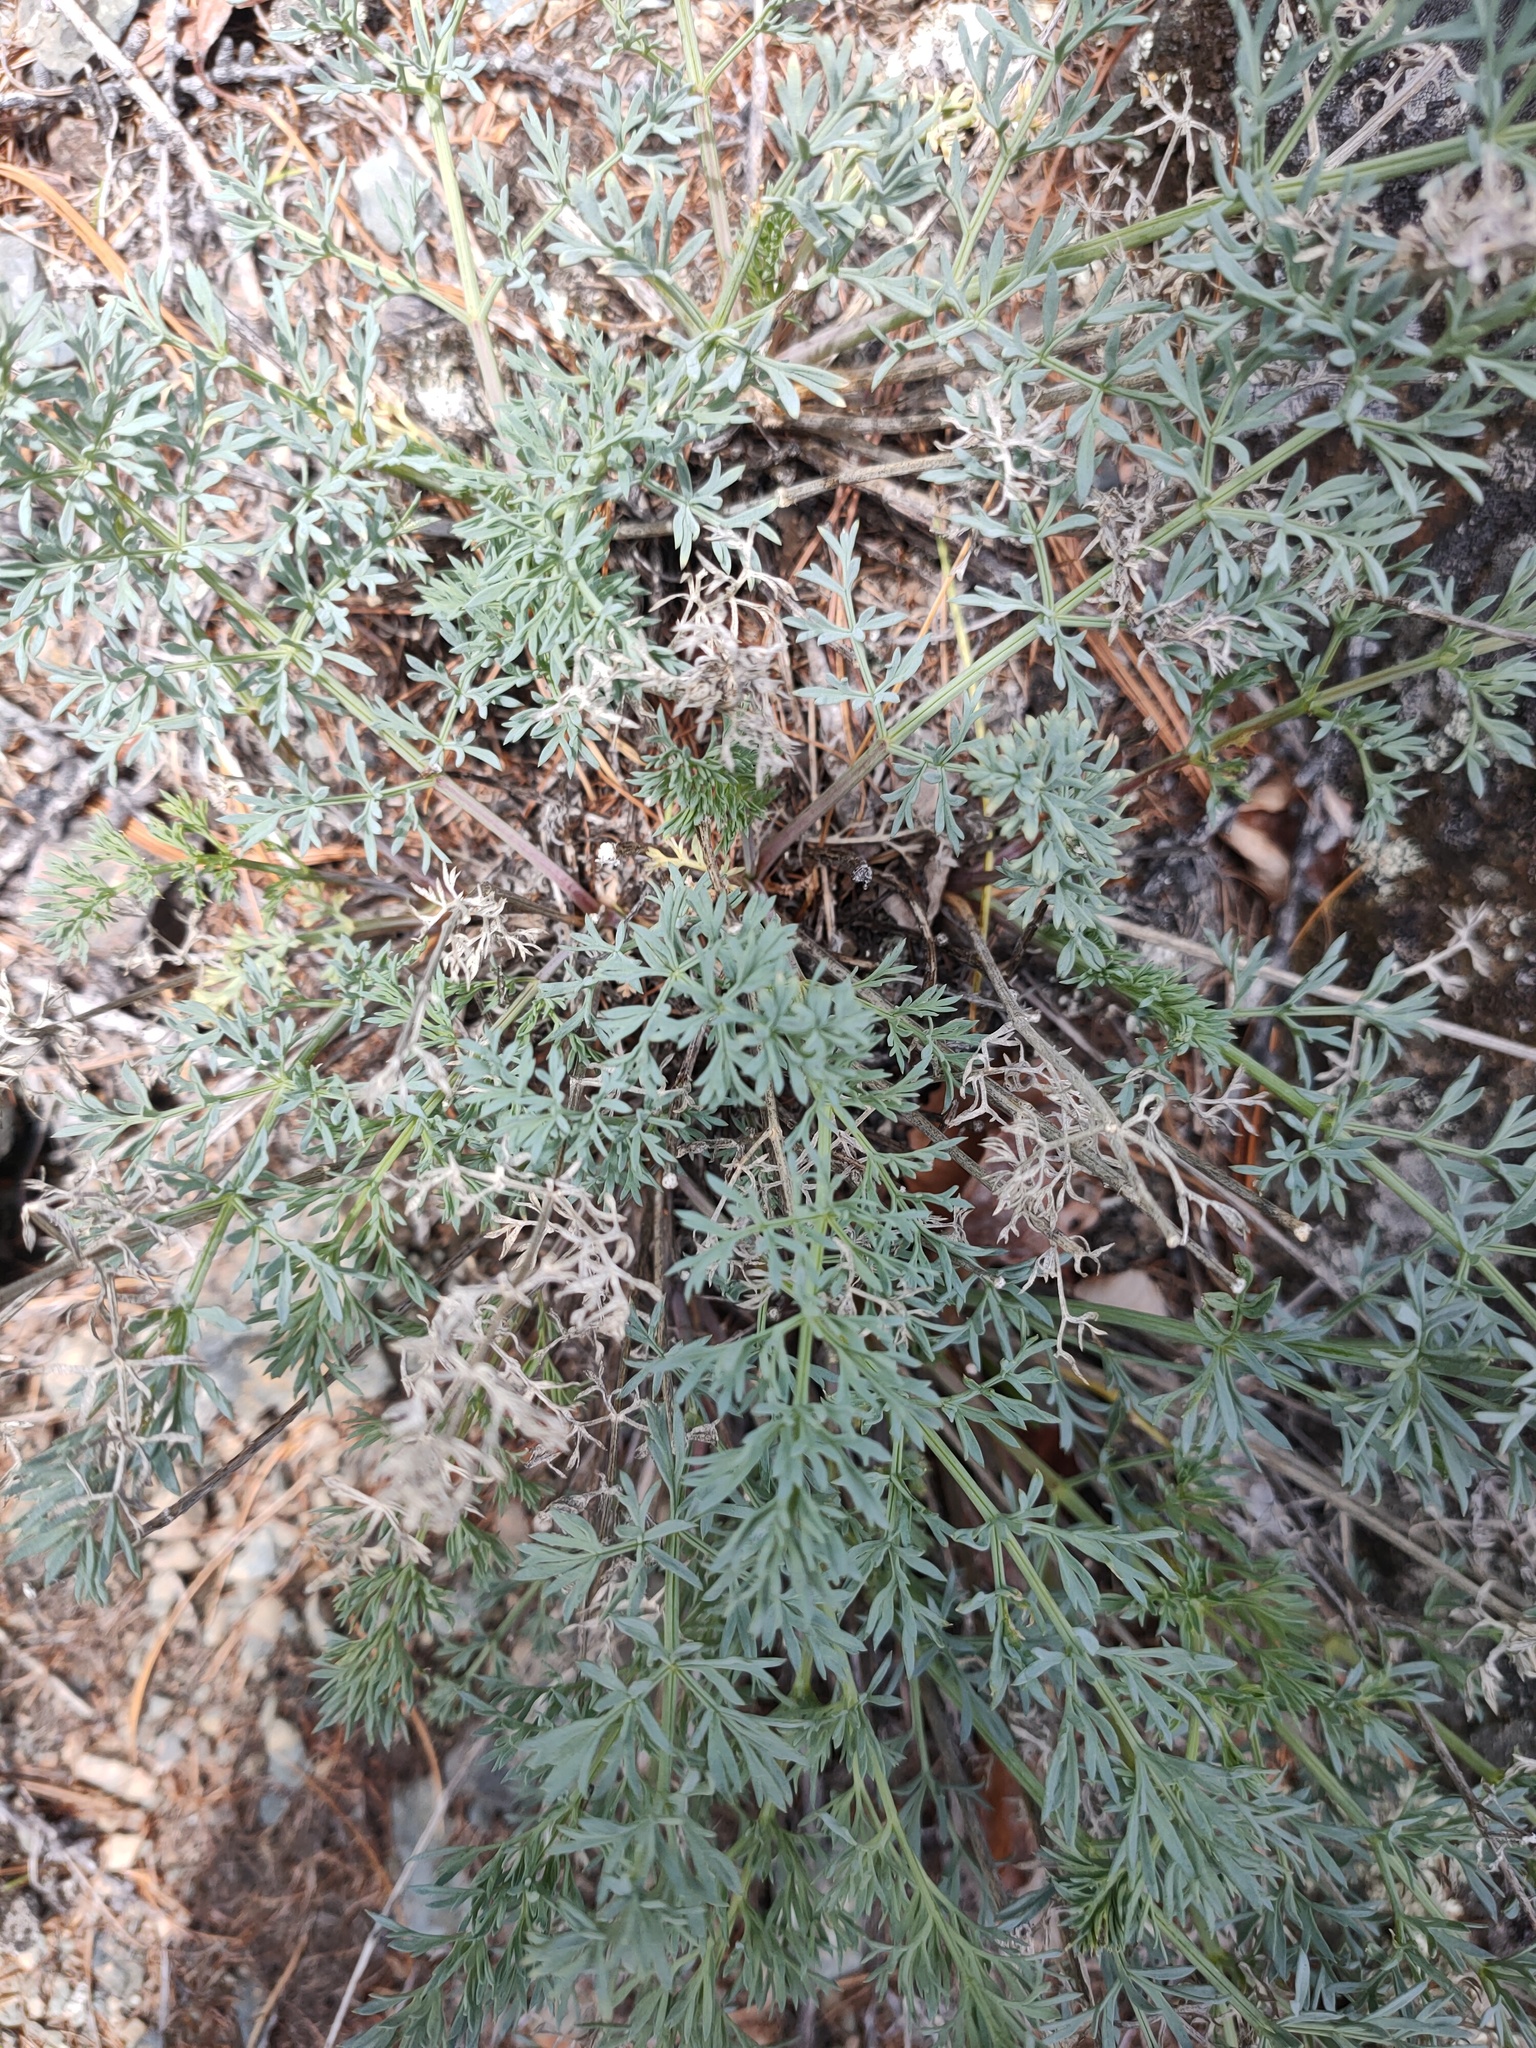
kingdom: Plantae
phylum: Tracheophyta
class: Magnoliopsida
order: Apiales
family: Apiaceae
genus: Phlojodicarpus
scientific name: Phlojodicarpus sibiricus
